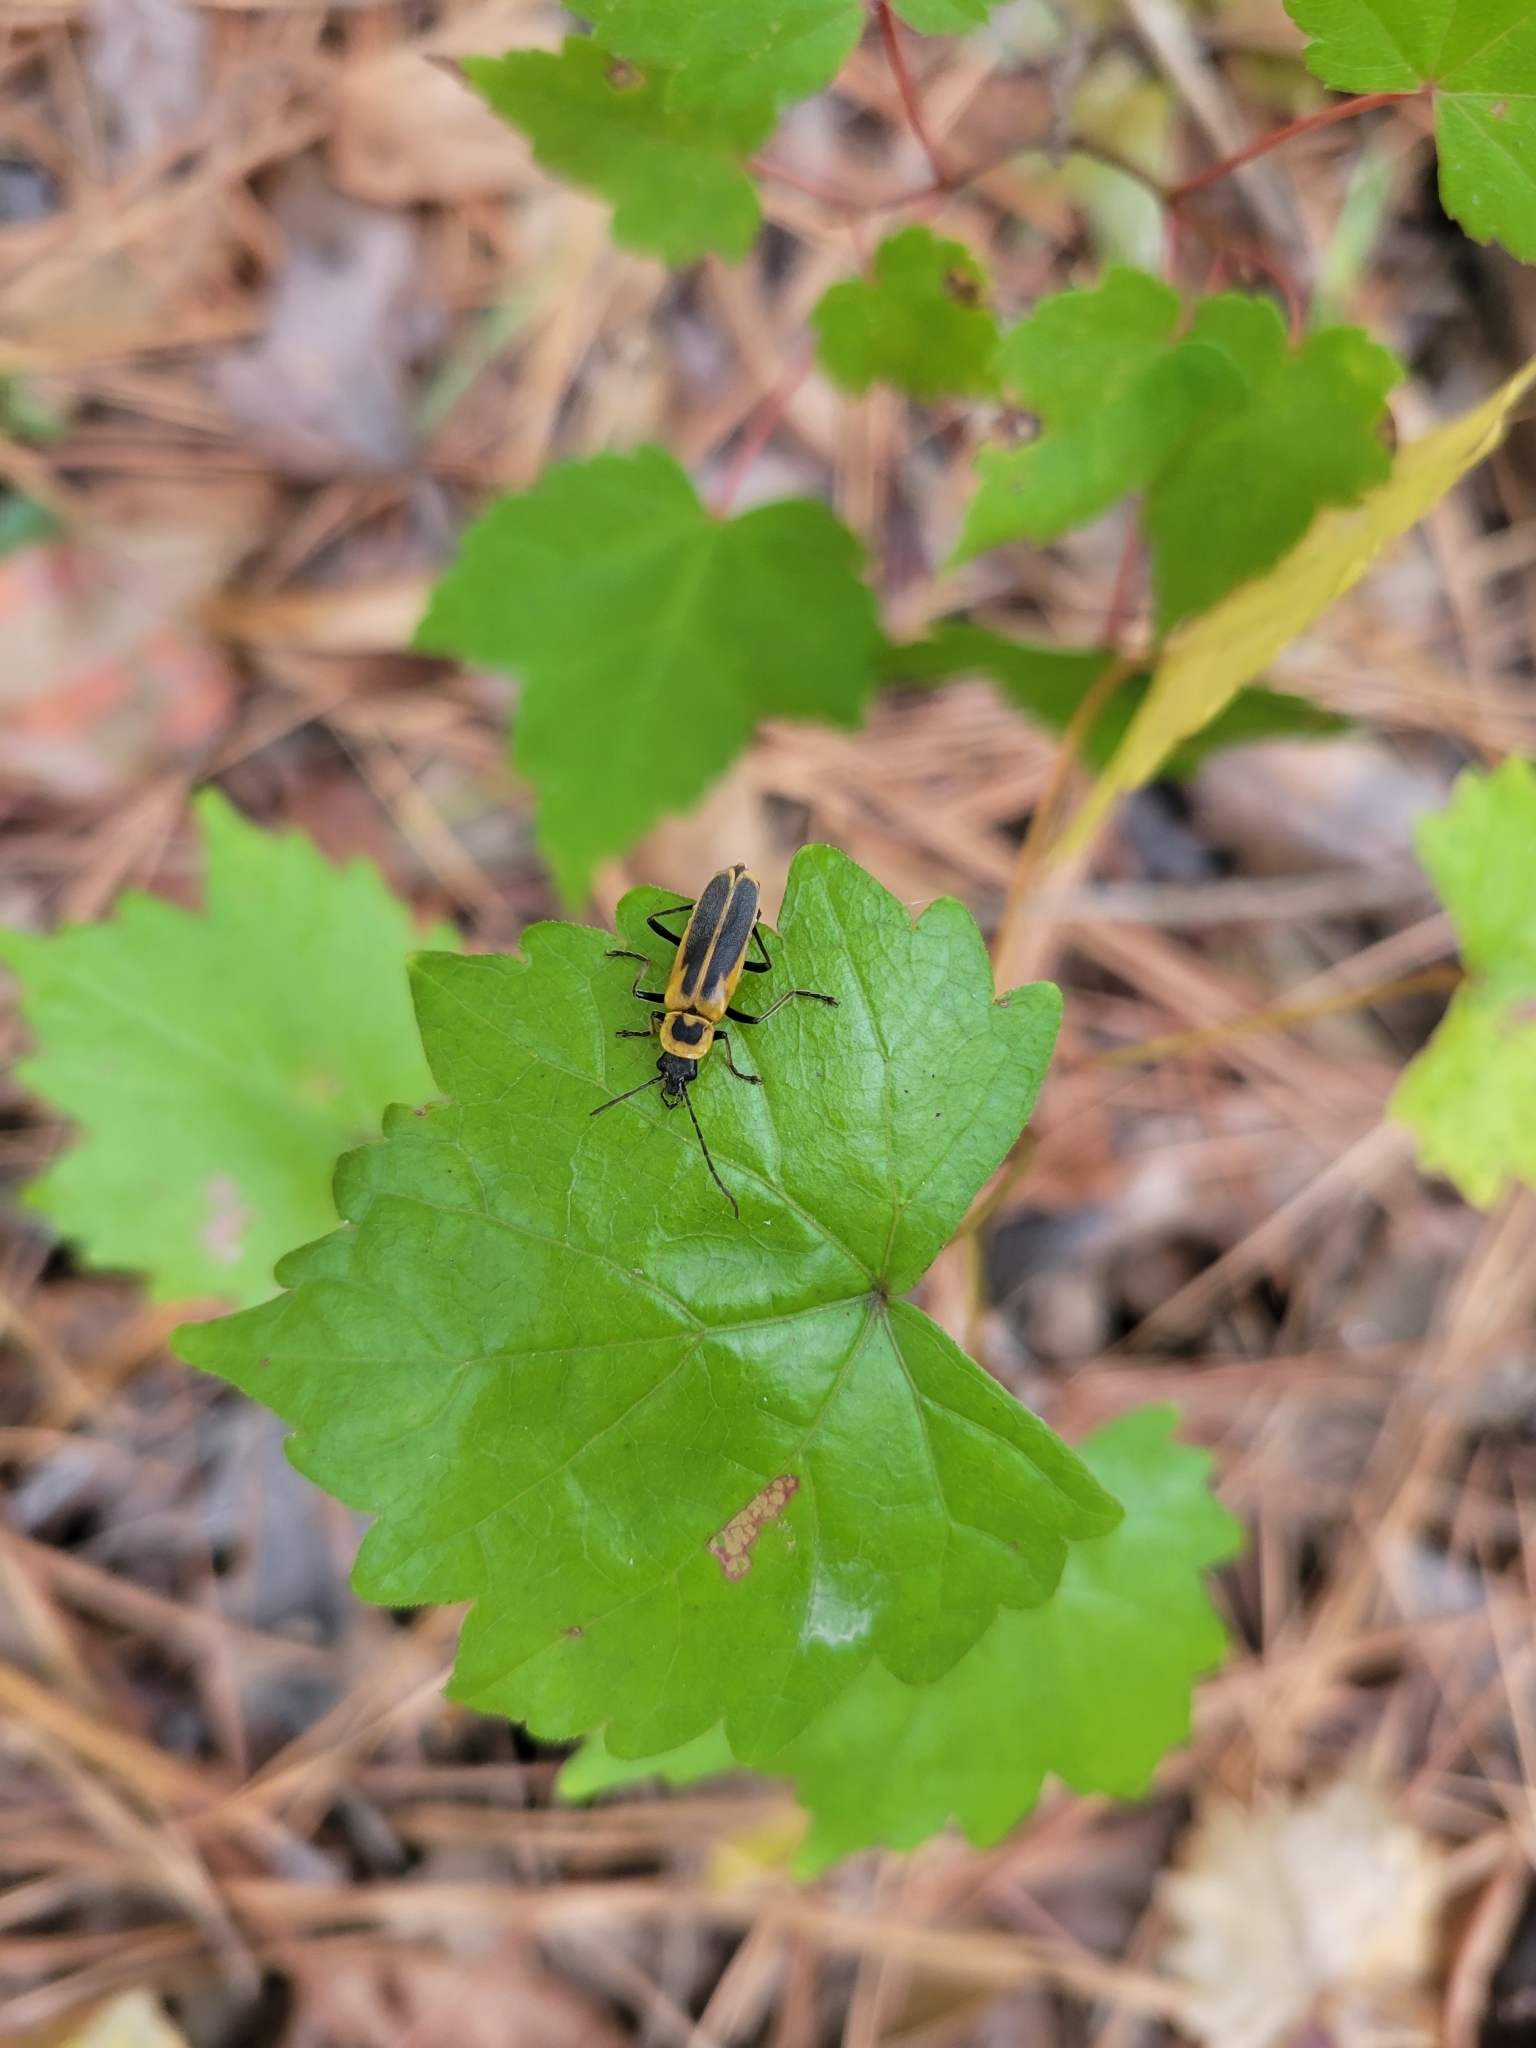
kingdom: Animalia
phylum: Arthropoda
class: Insecta
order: Coleoptera
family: Cantharidae
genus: Chauliognathus
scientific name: Chauliognathus pensylvanicus
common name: Goldenrod soldier beetle
